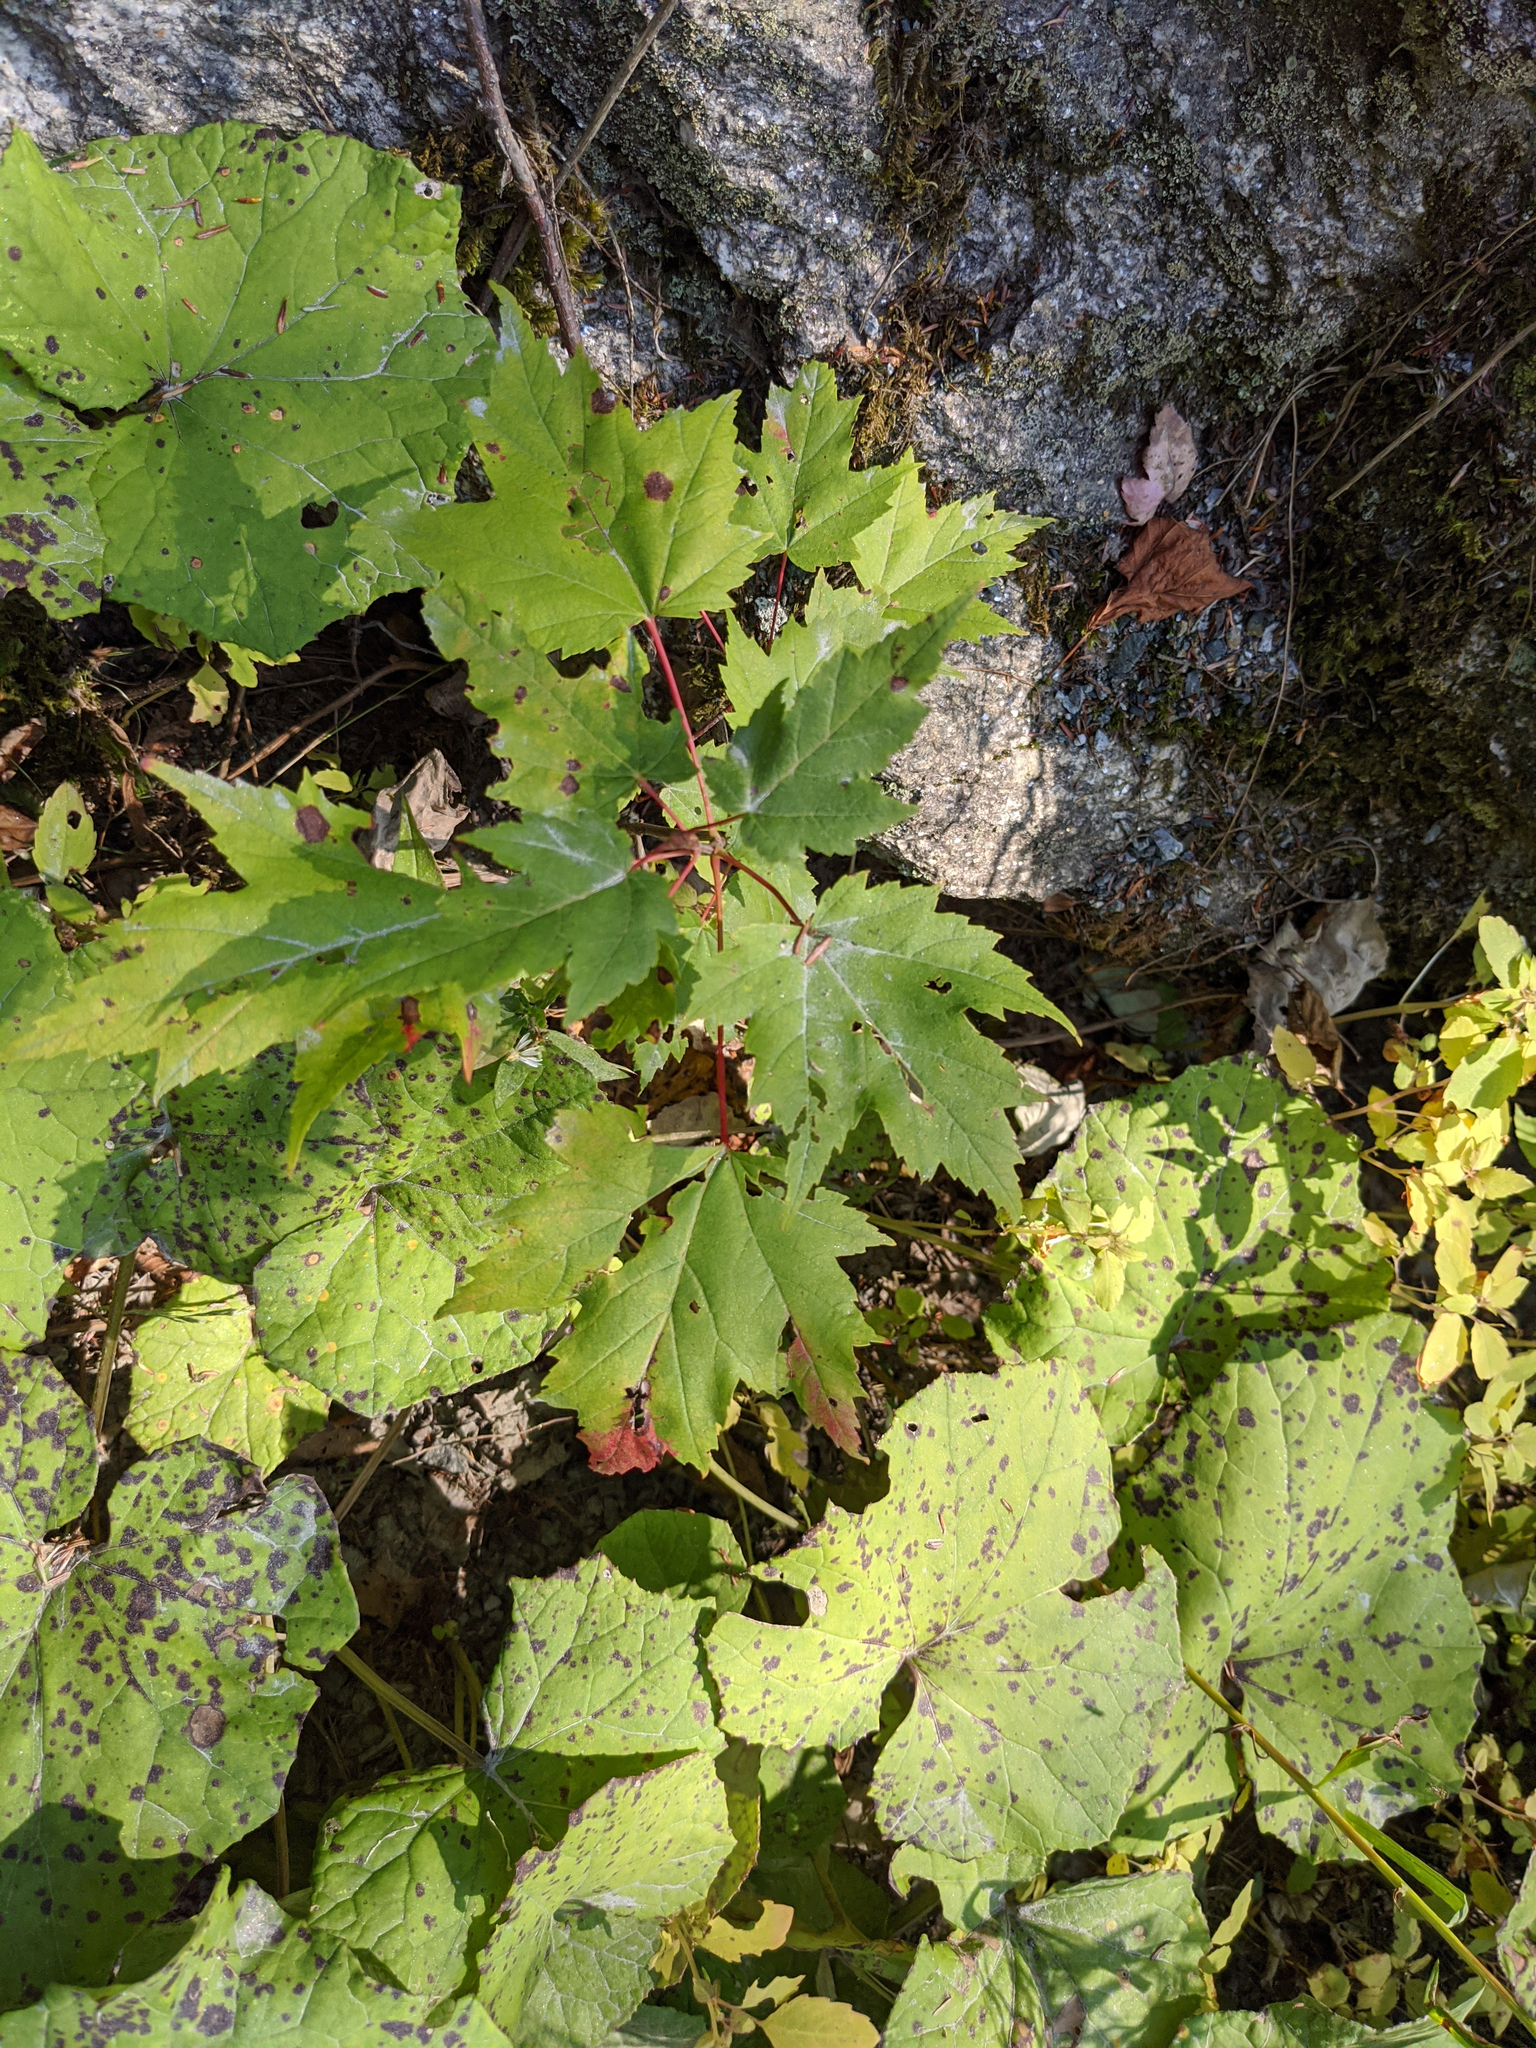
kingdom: Plantae
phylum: Tracheophyta
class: Magnoliopsida
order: Sapindales
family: Sapindaceae
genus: Acer
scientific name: Acer rubrum
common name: Red maple
